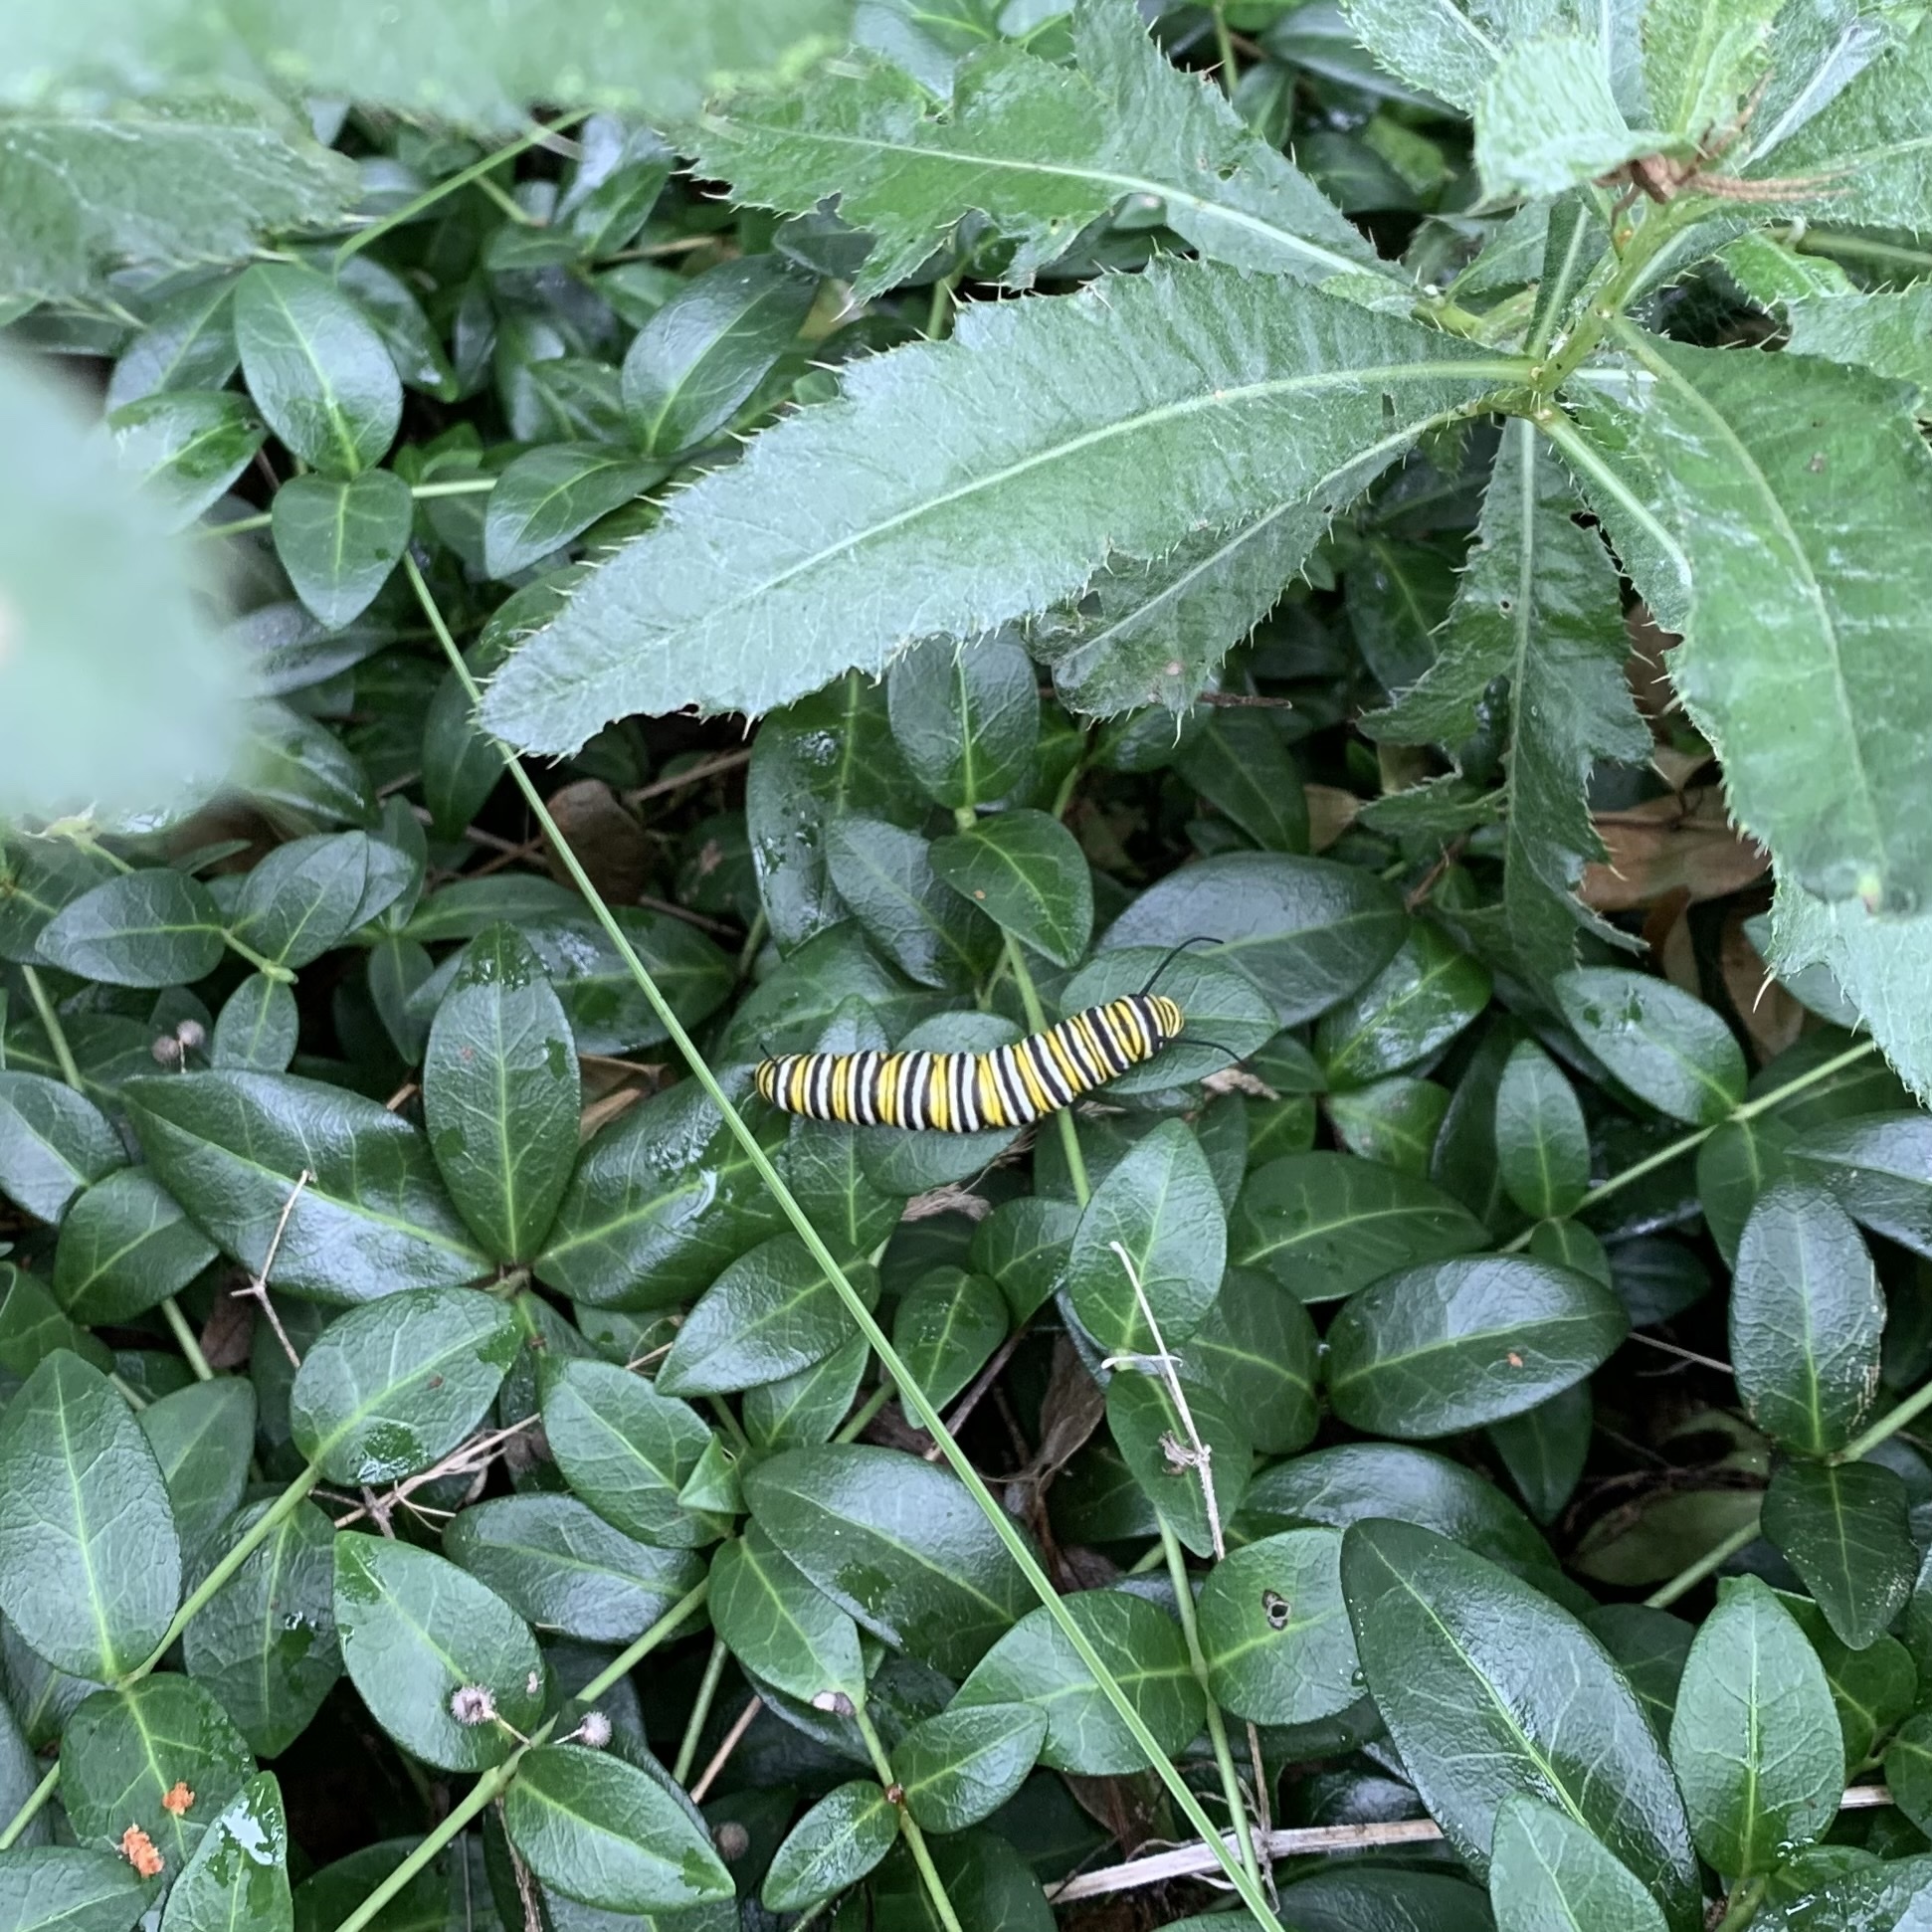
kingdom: Animalia
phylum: Arthropoda
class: Insecta
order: Lepidoptera
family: Nymphalidae
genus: Danaus
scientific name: Danaus plexippus
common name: Monarch
